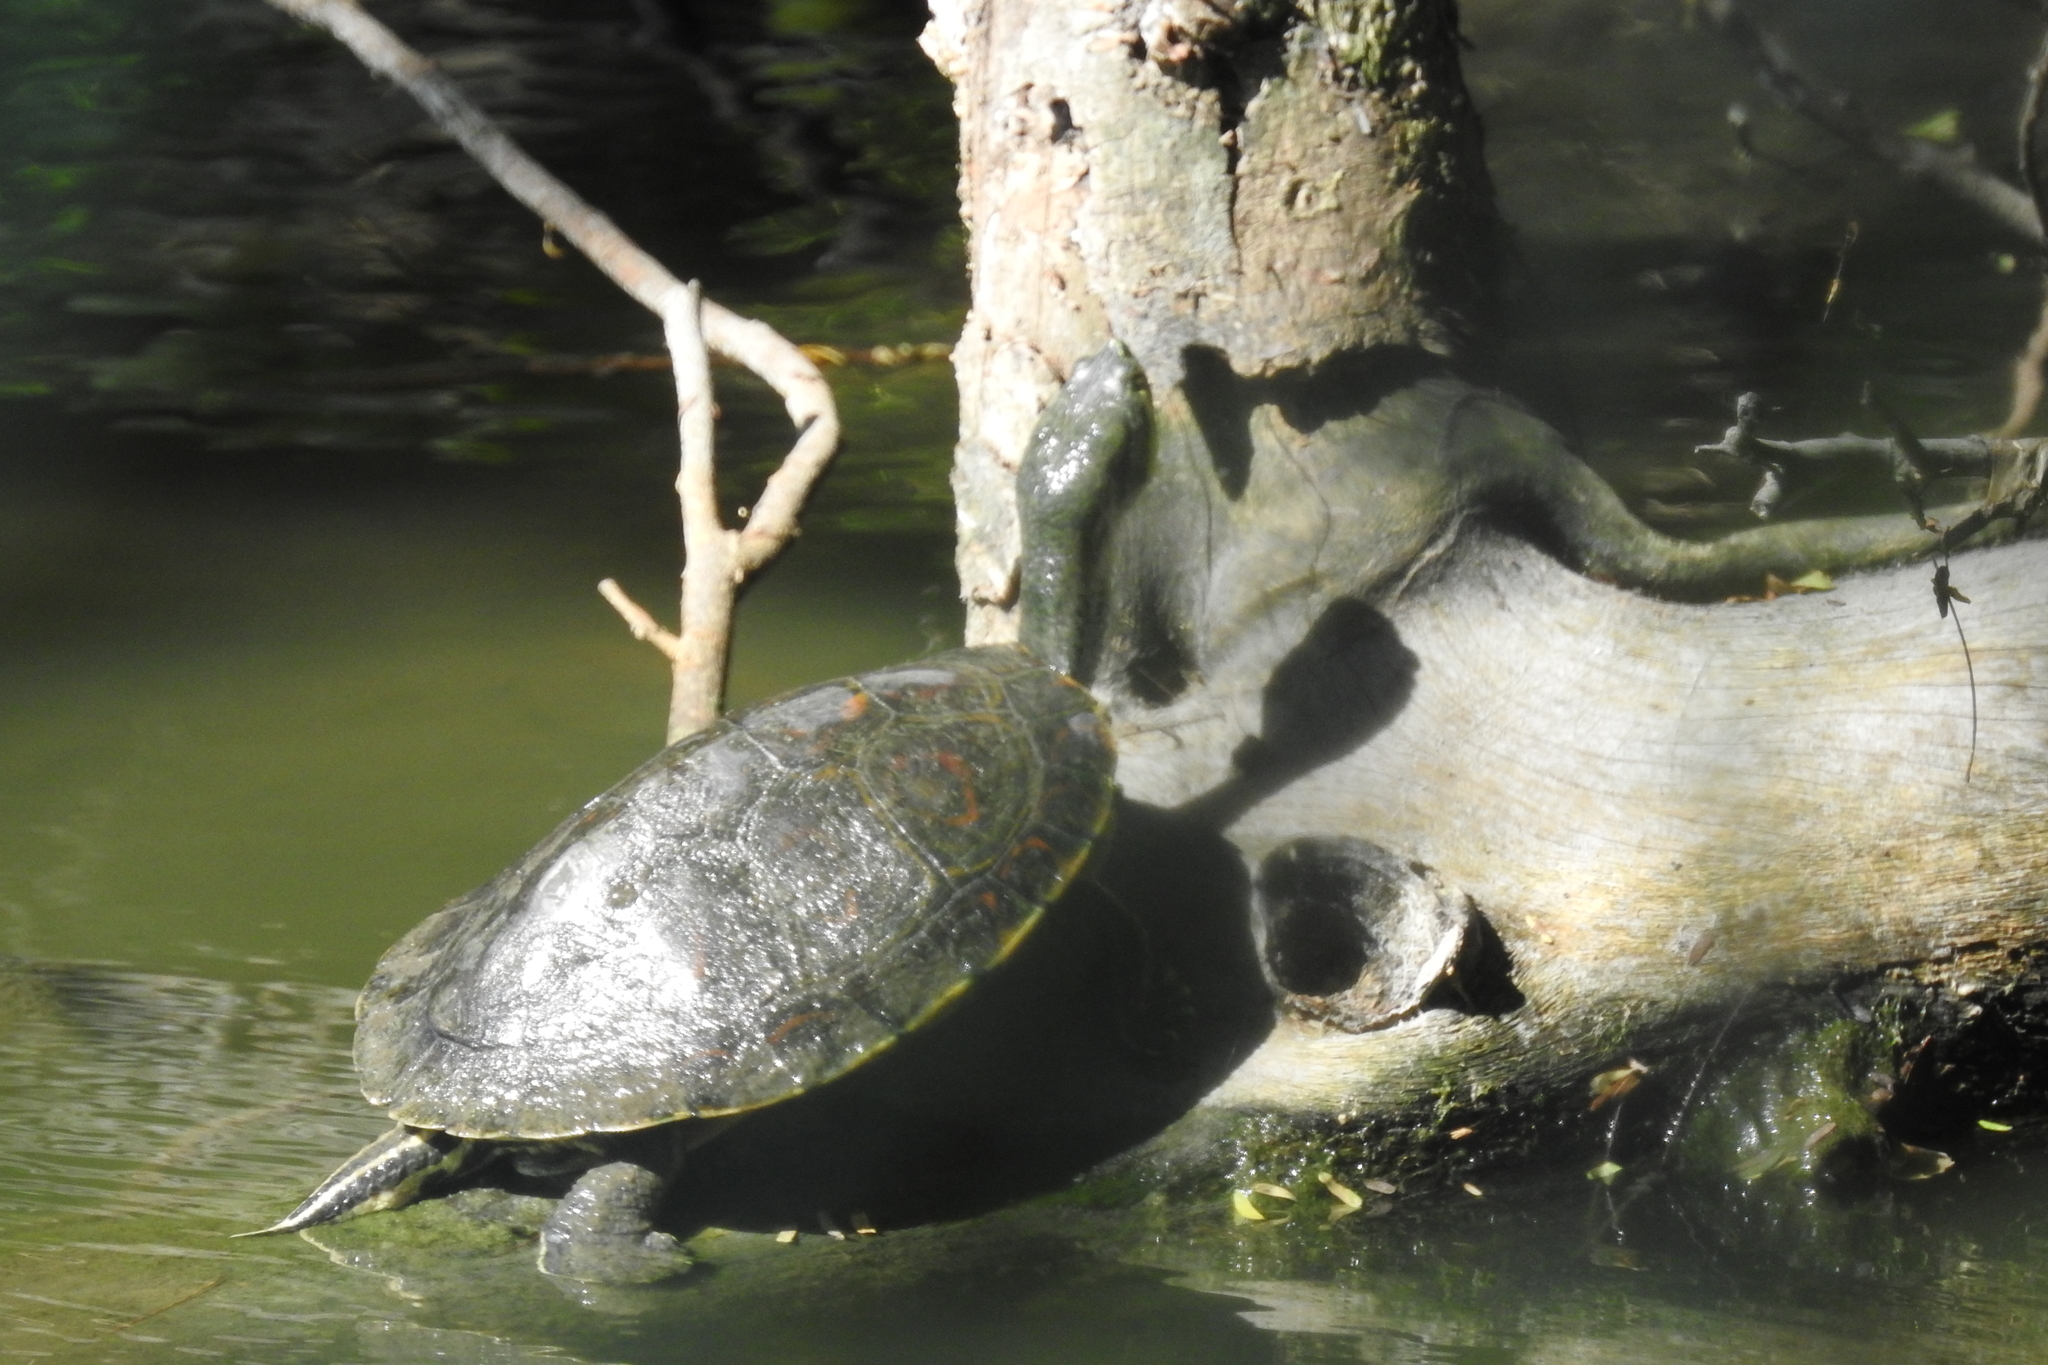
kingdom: Animalia
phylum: Chordata
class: Testudines
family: Emydidae
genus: Trachemys
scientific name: Trachemys venusta
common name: Mesoamerican slider
